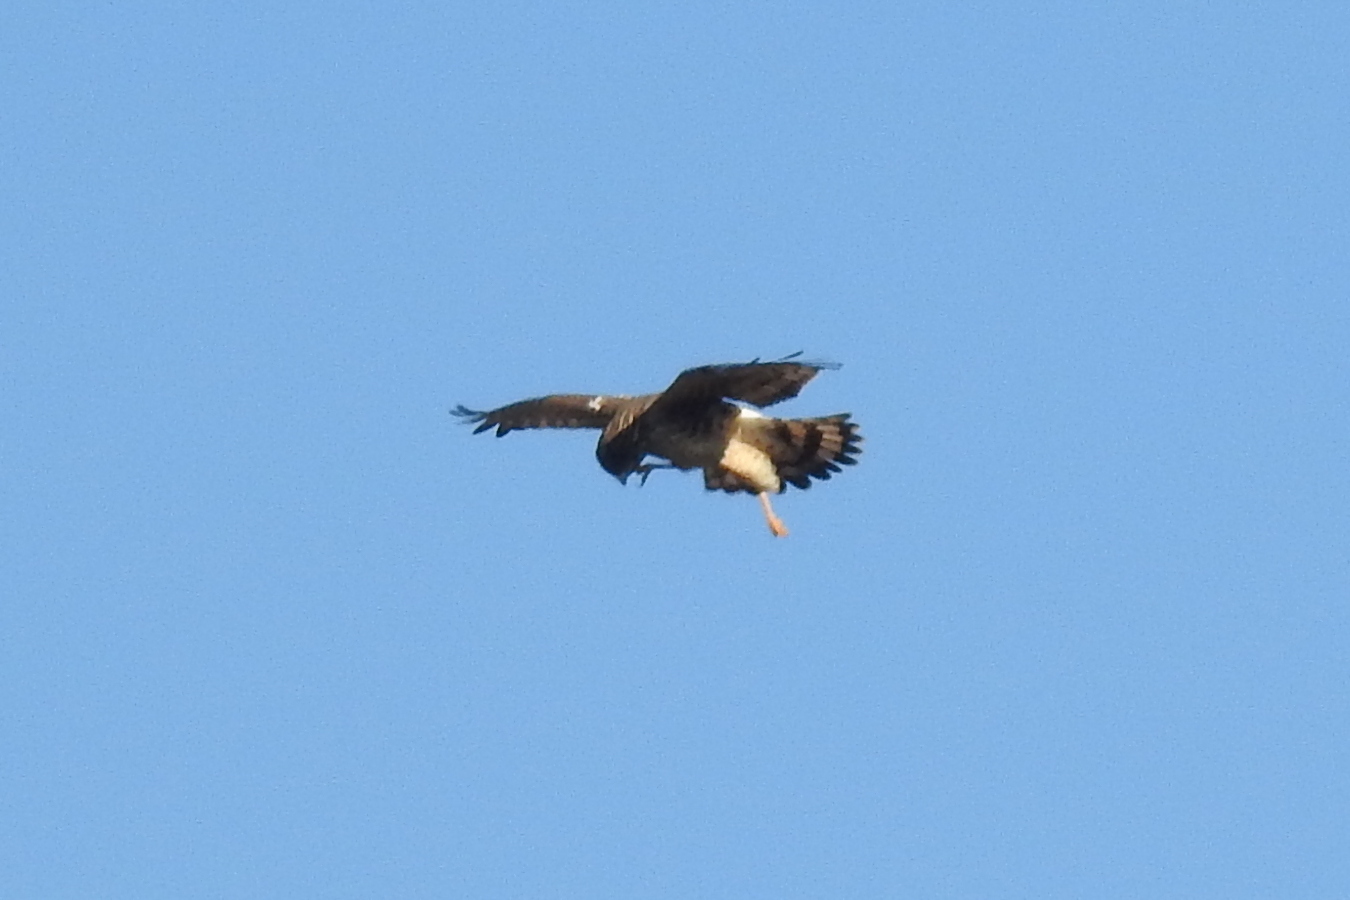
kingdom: Animalia
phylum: Chordata
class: Aves
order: Accipitriformes
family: Accipitridae
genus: Circus
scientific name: Circus cyaneus
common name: Hen harrier
